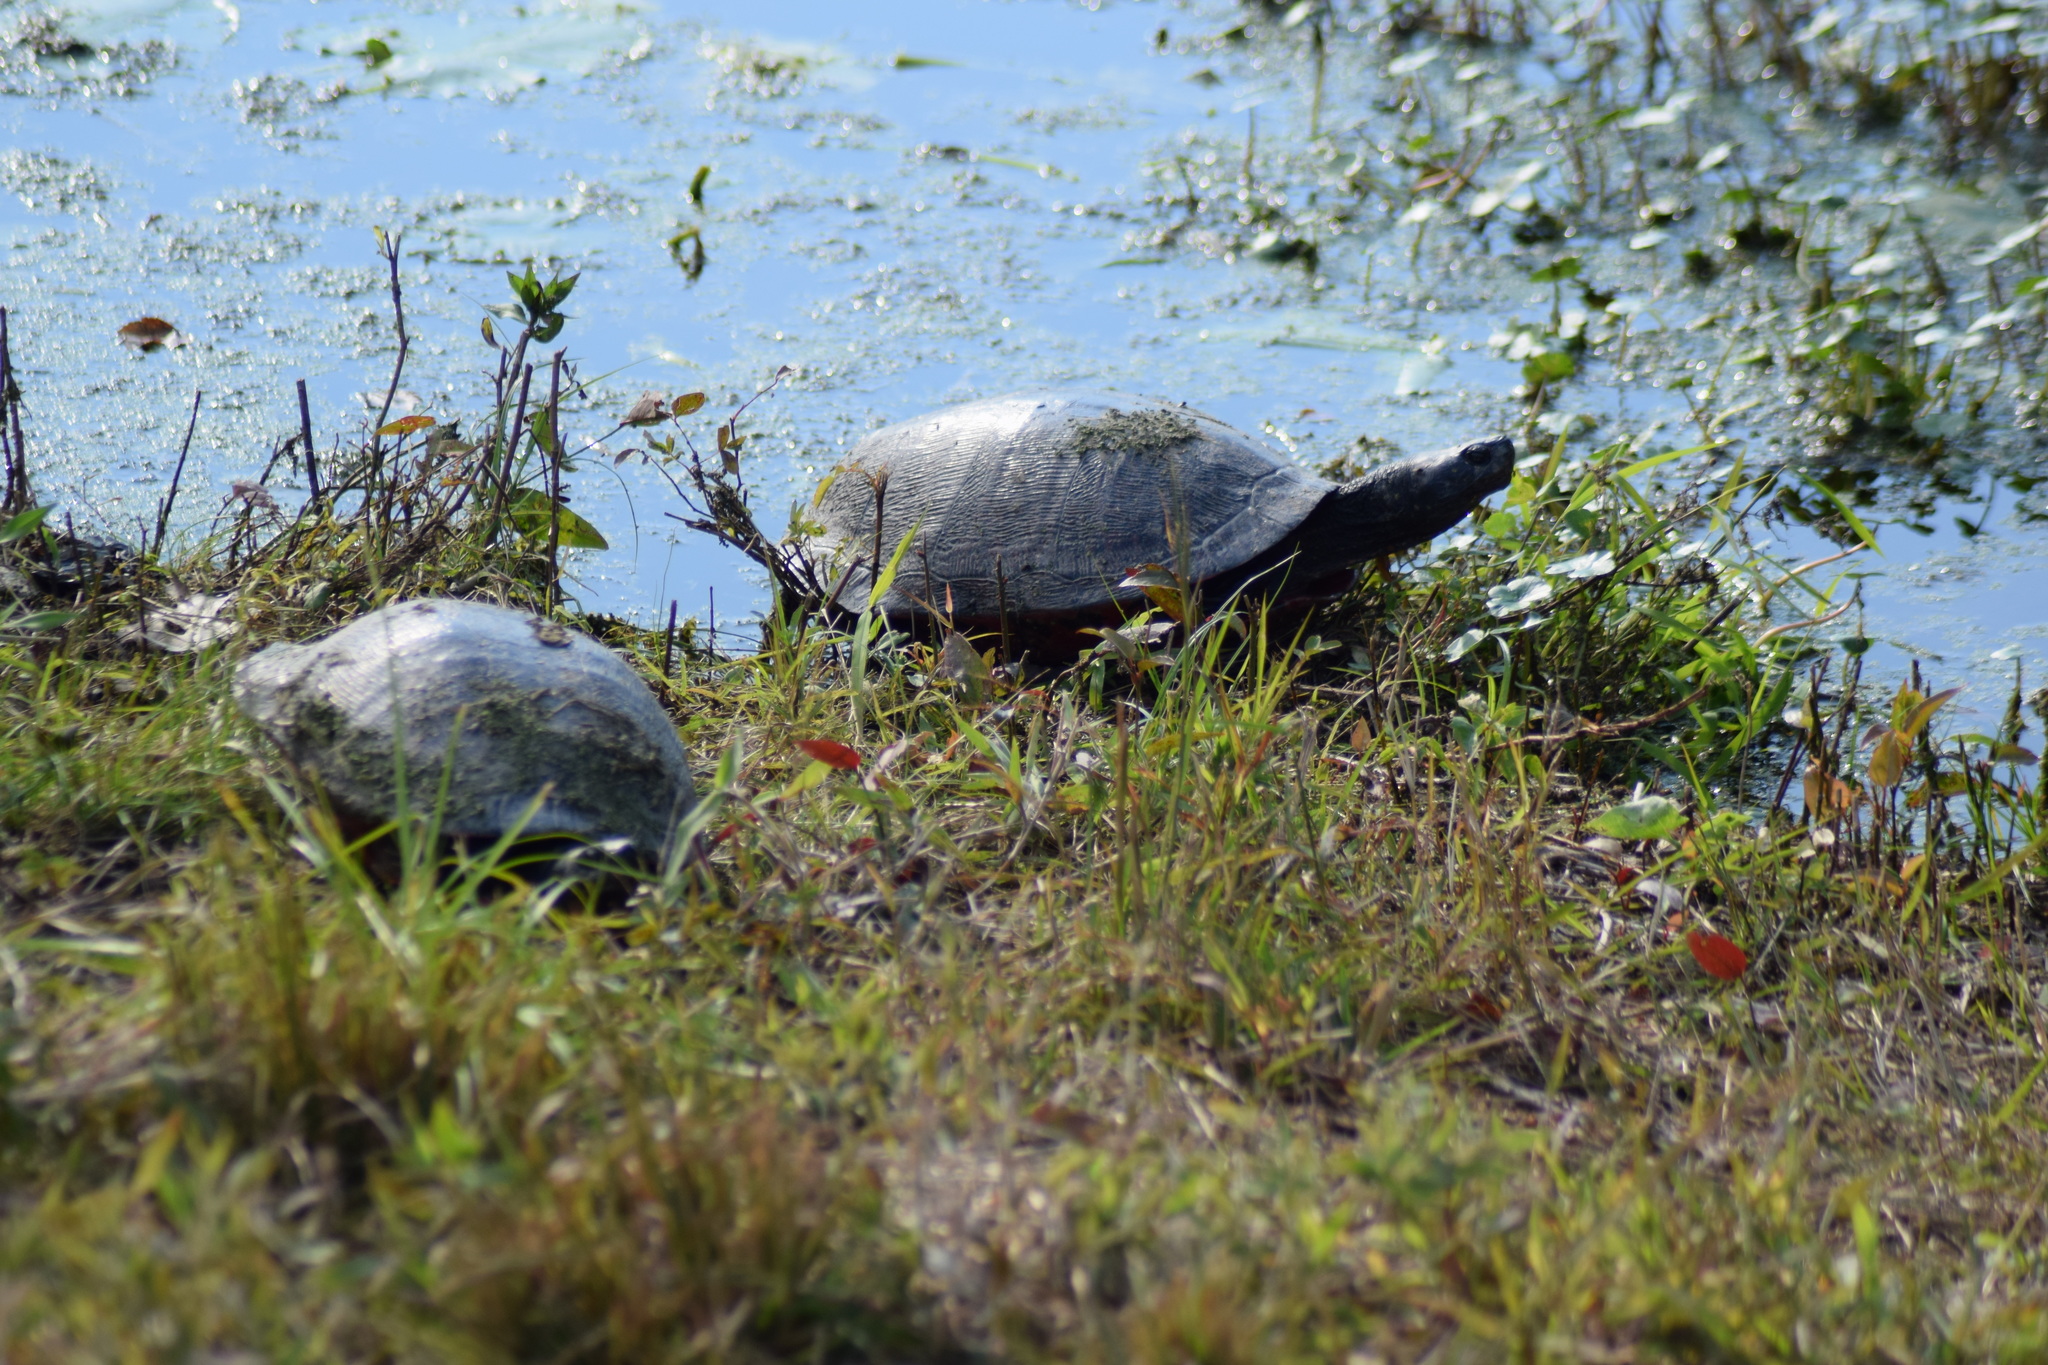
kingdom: Animalia
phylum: Chordata
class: Testudines
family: Emydidae
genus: Pseudemys
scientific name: Pseudemys rubriventris
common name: American red-bellied turtle
